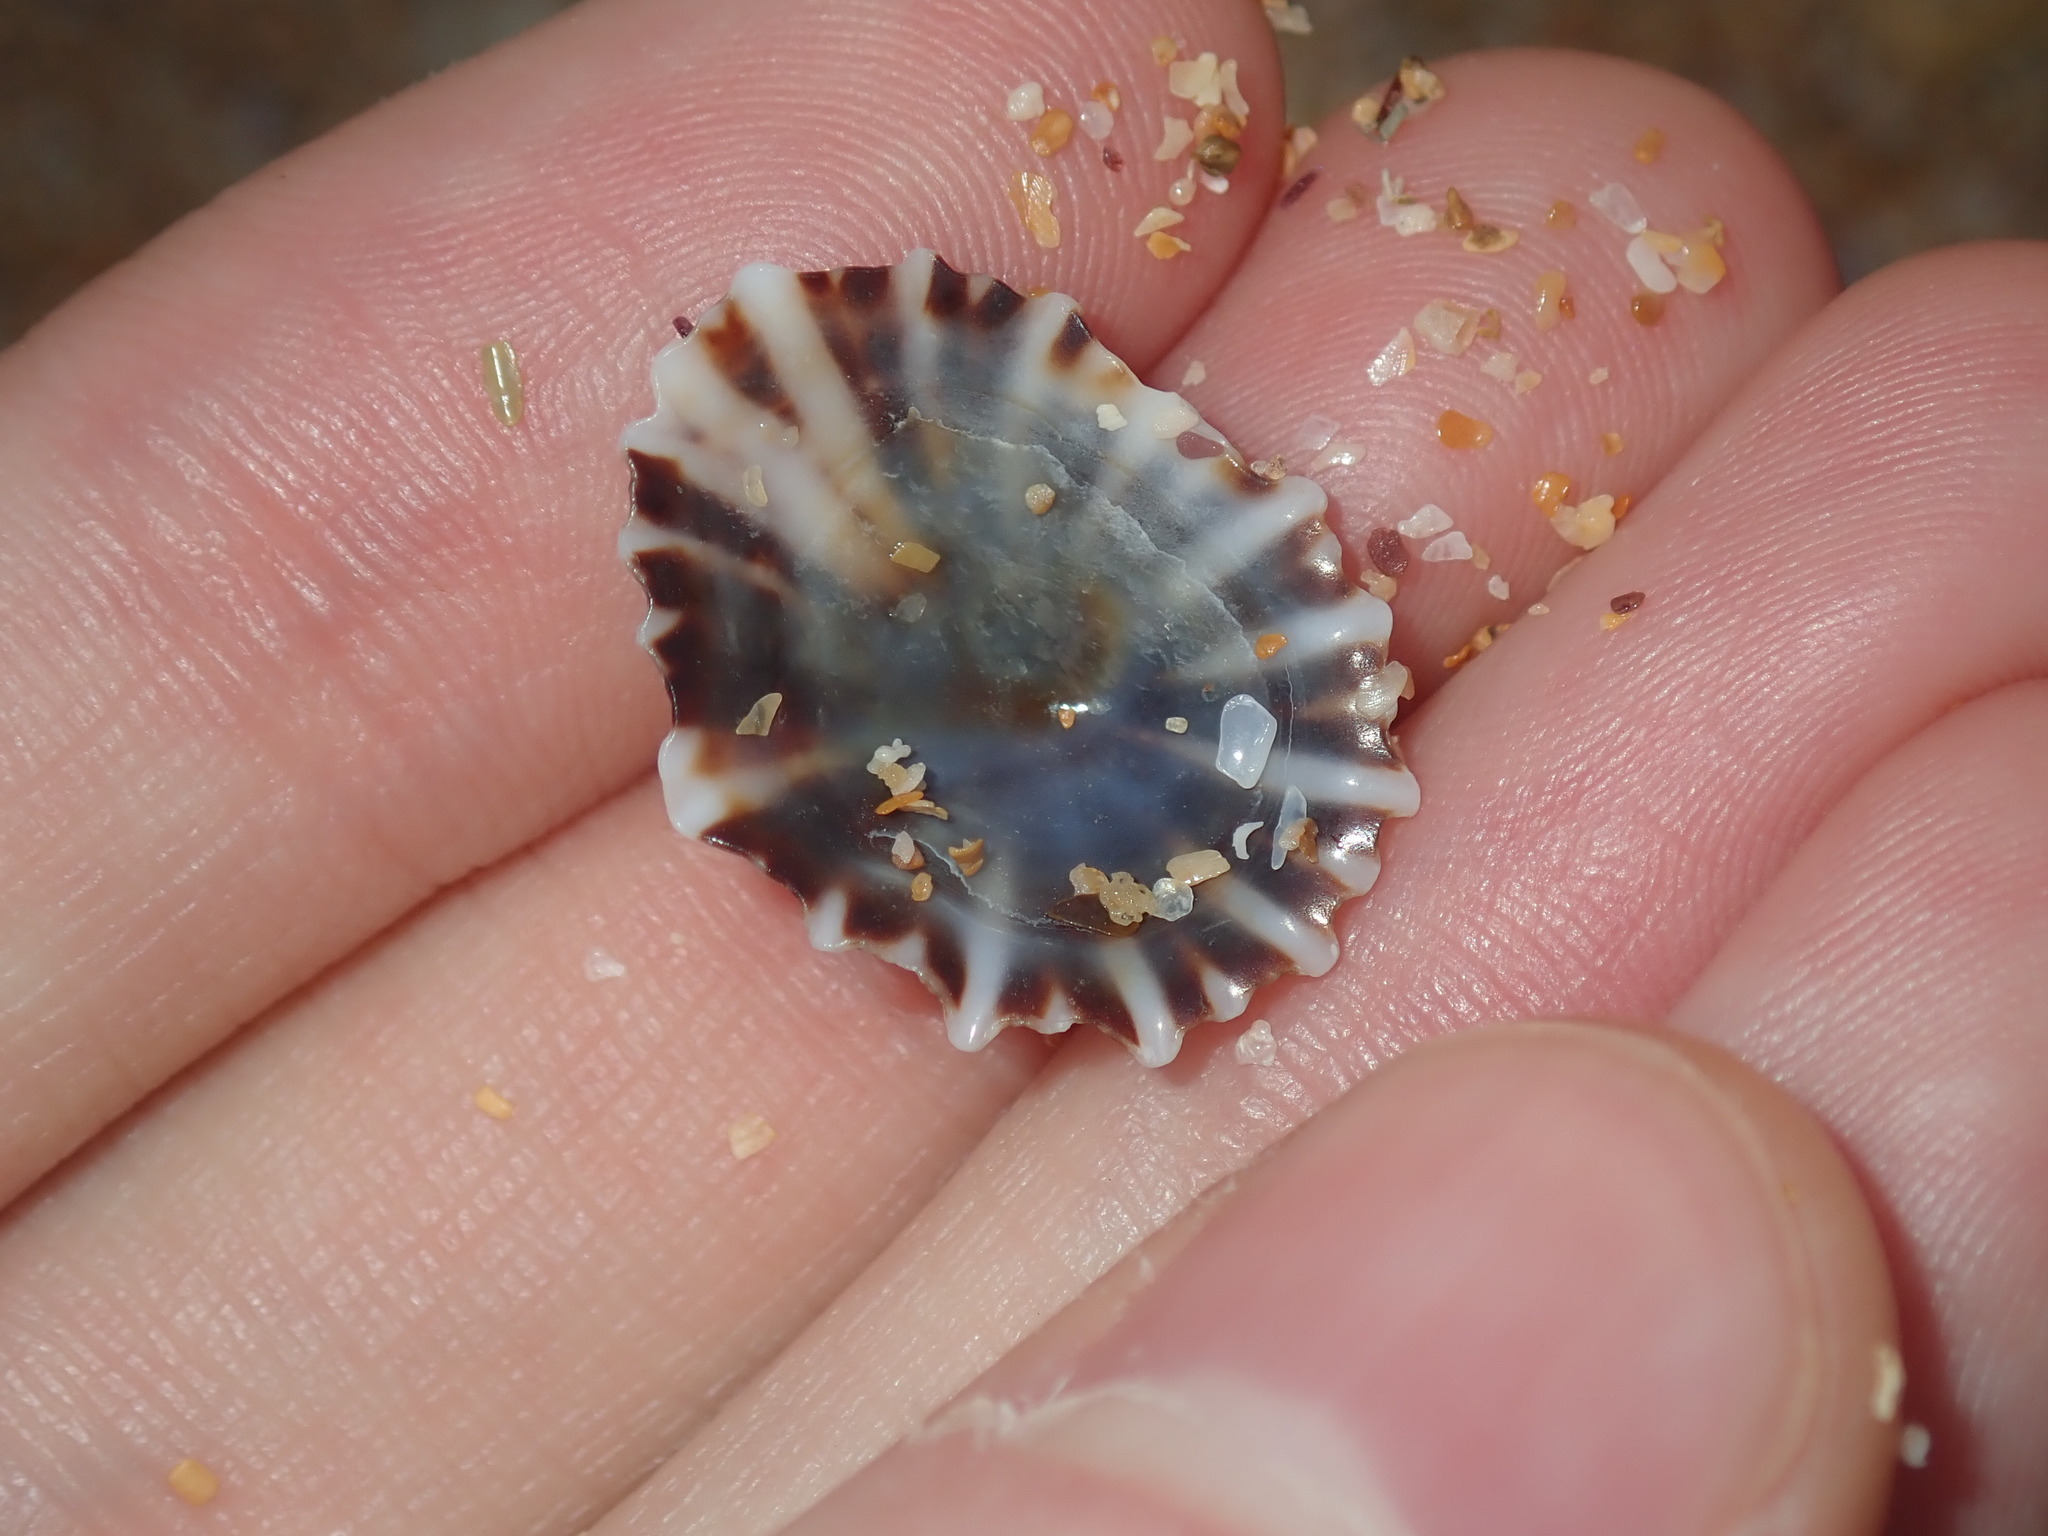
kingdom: Animalia
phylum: Mollusca
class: Gastropoda
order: Siphonariida
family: Siphonariidae
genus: Siphonaria
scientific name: Siphonaria denticulata
